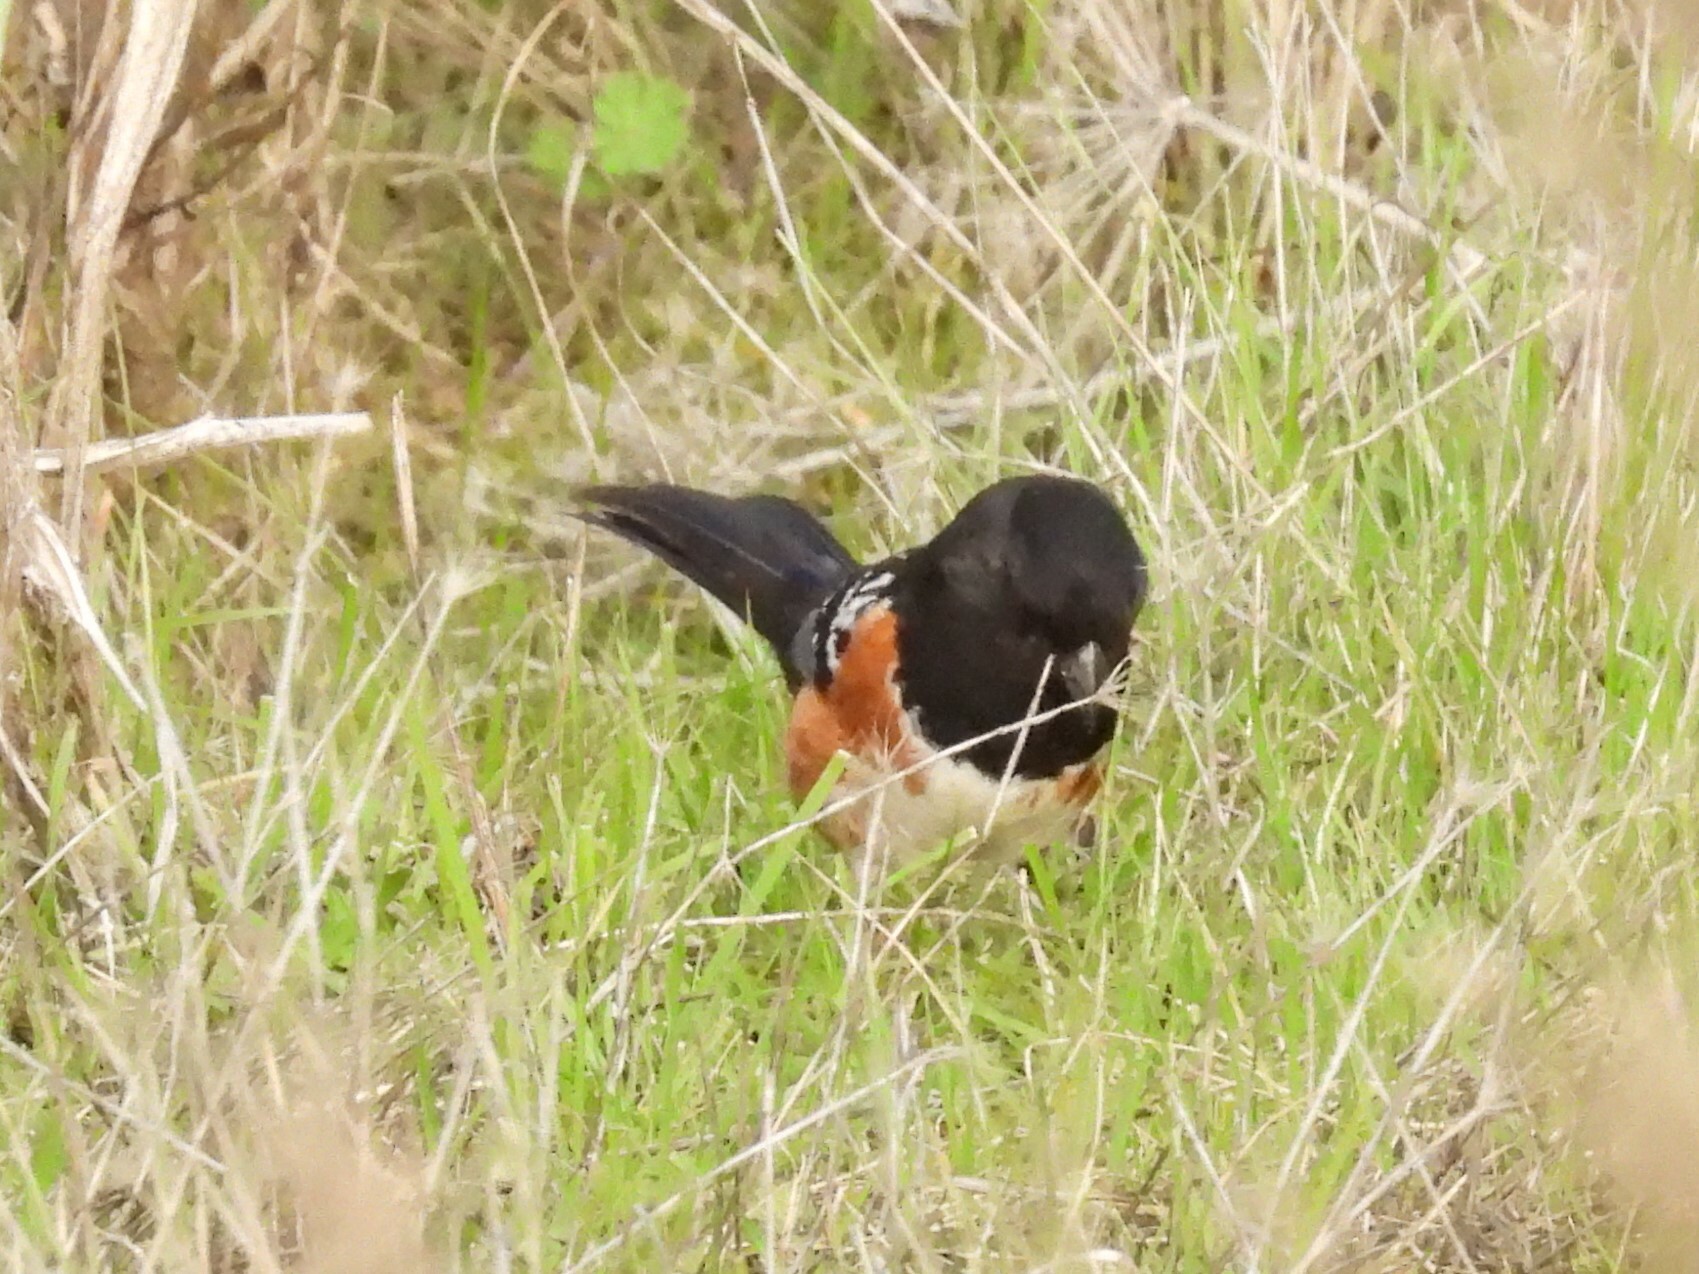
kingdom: Animalia
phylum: Chordata
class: Aves
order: Passeriformes
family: Passerellidae
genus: Pipilo
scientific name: Pipilo maculatus
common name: Spotted towhee
